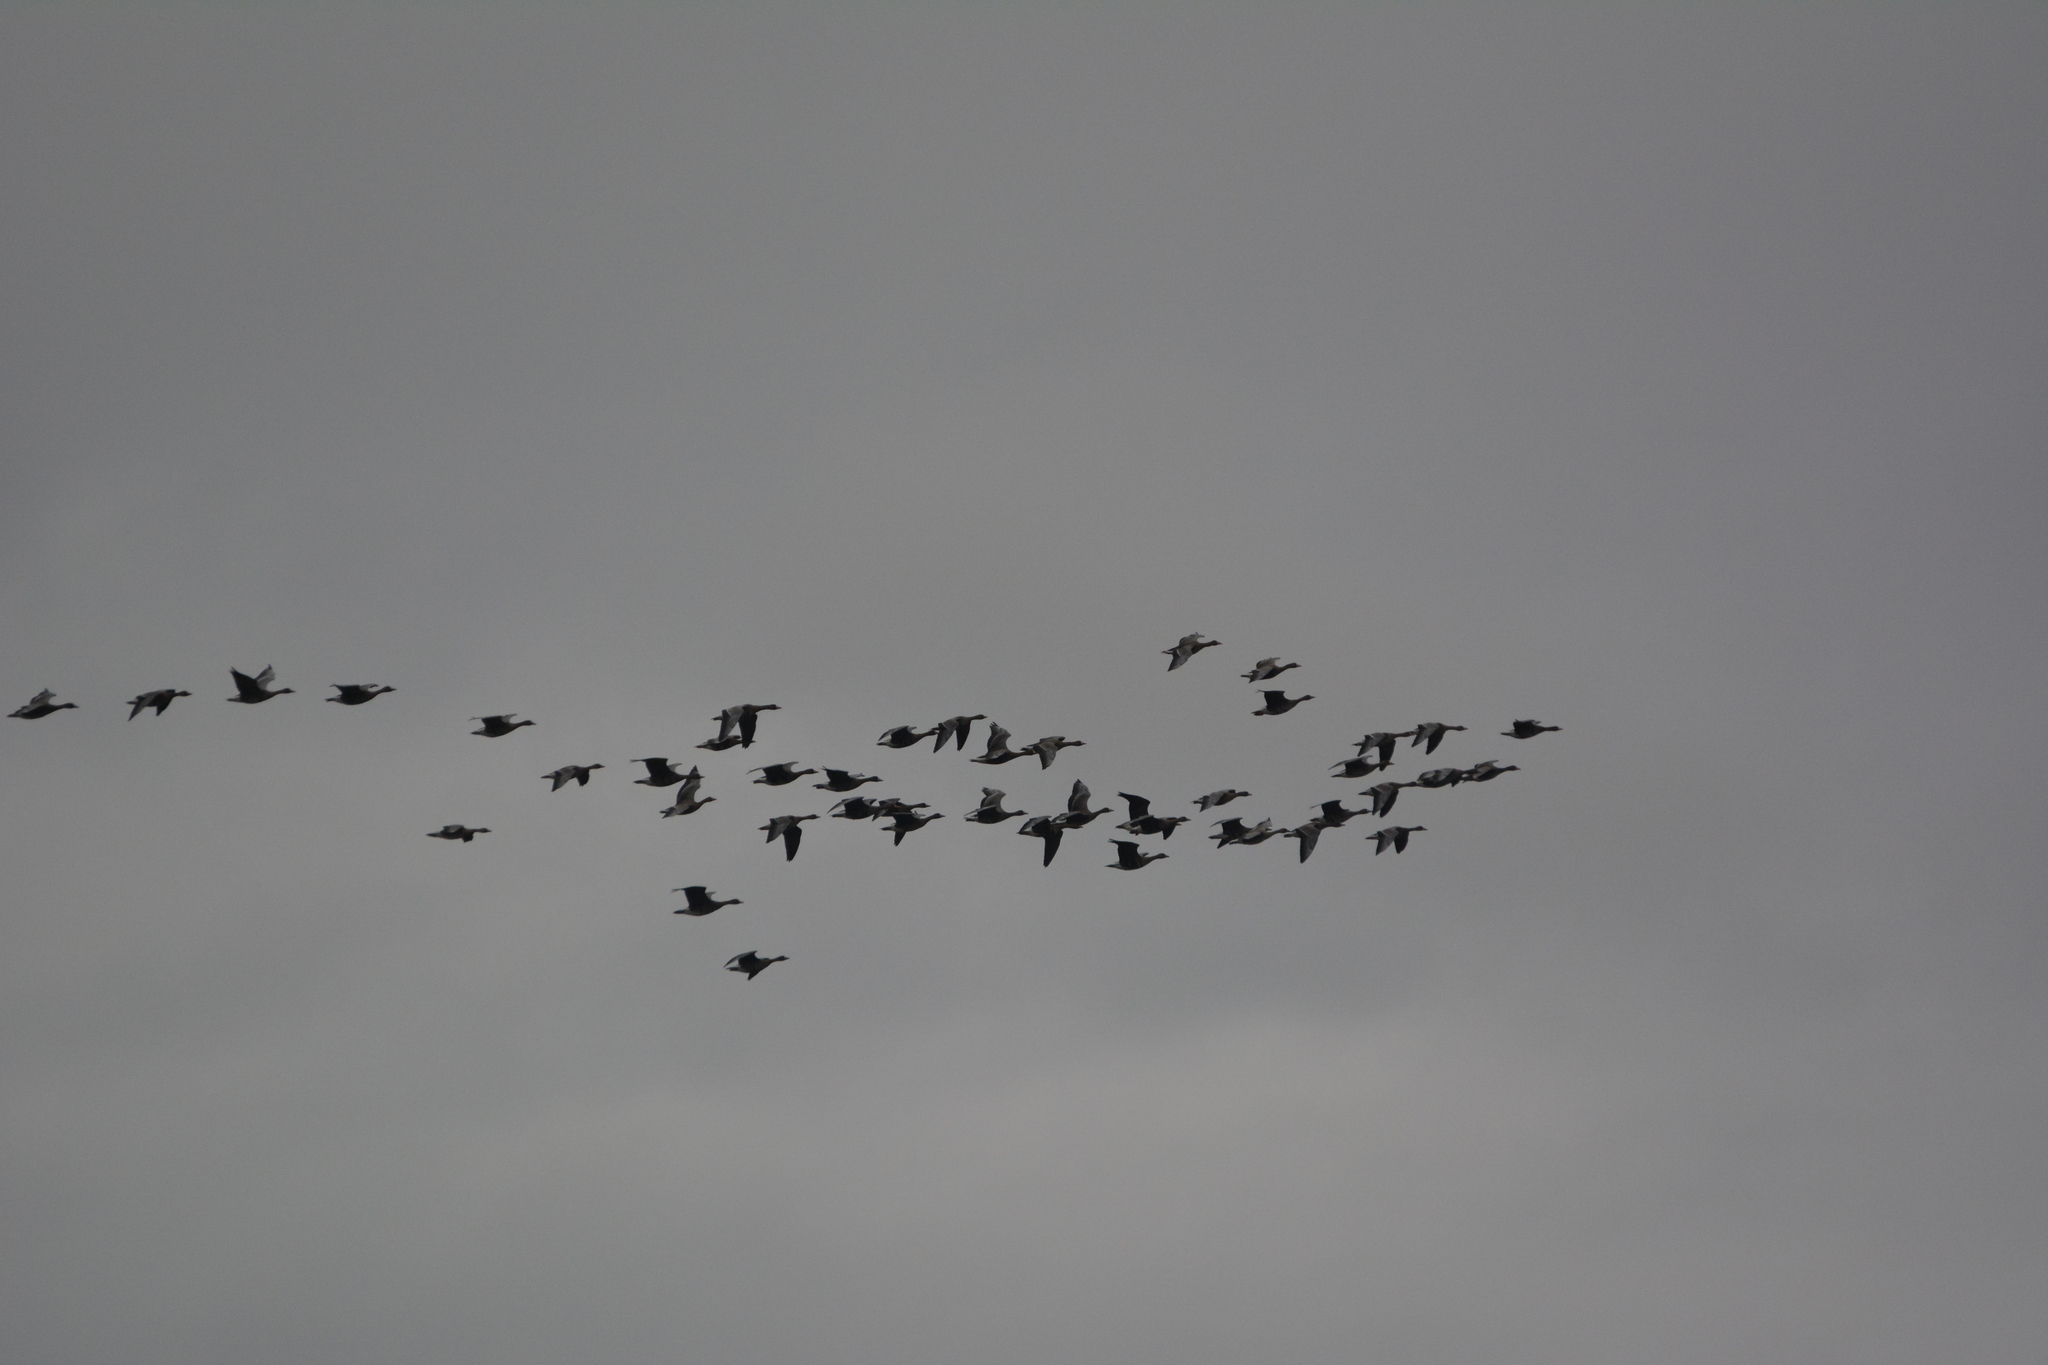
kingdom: Animalia
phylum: Chordata
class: Aves
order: Anseriformes
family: Anatidae
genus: Anser
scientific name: Anser albifrons
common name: Greater white-fronted goose
